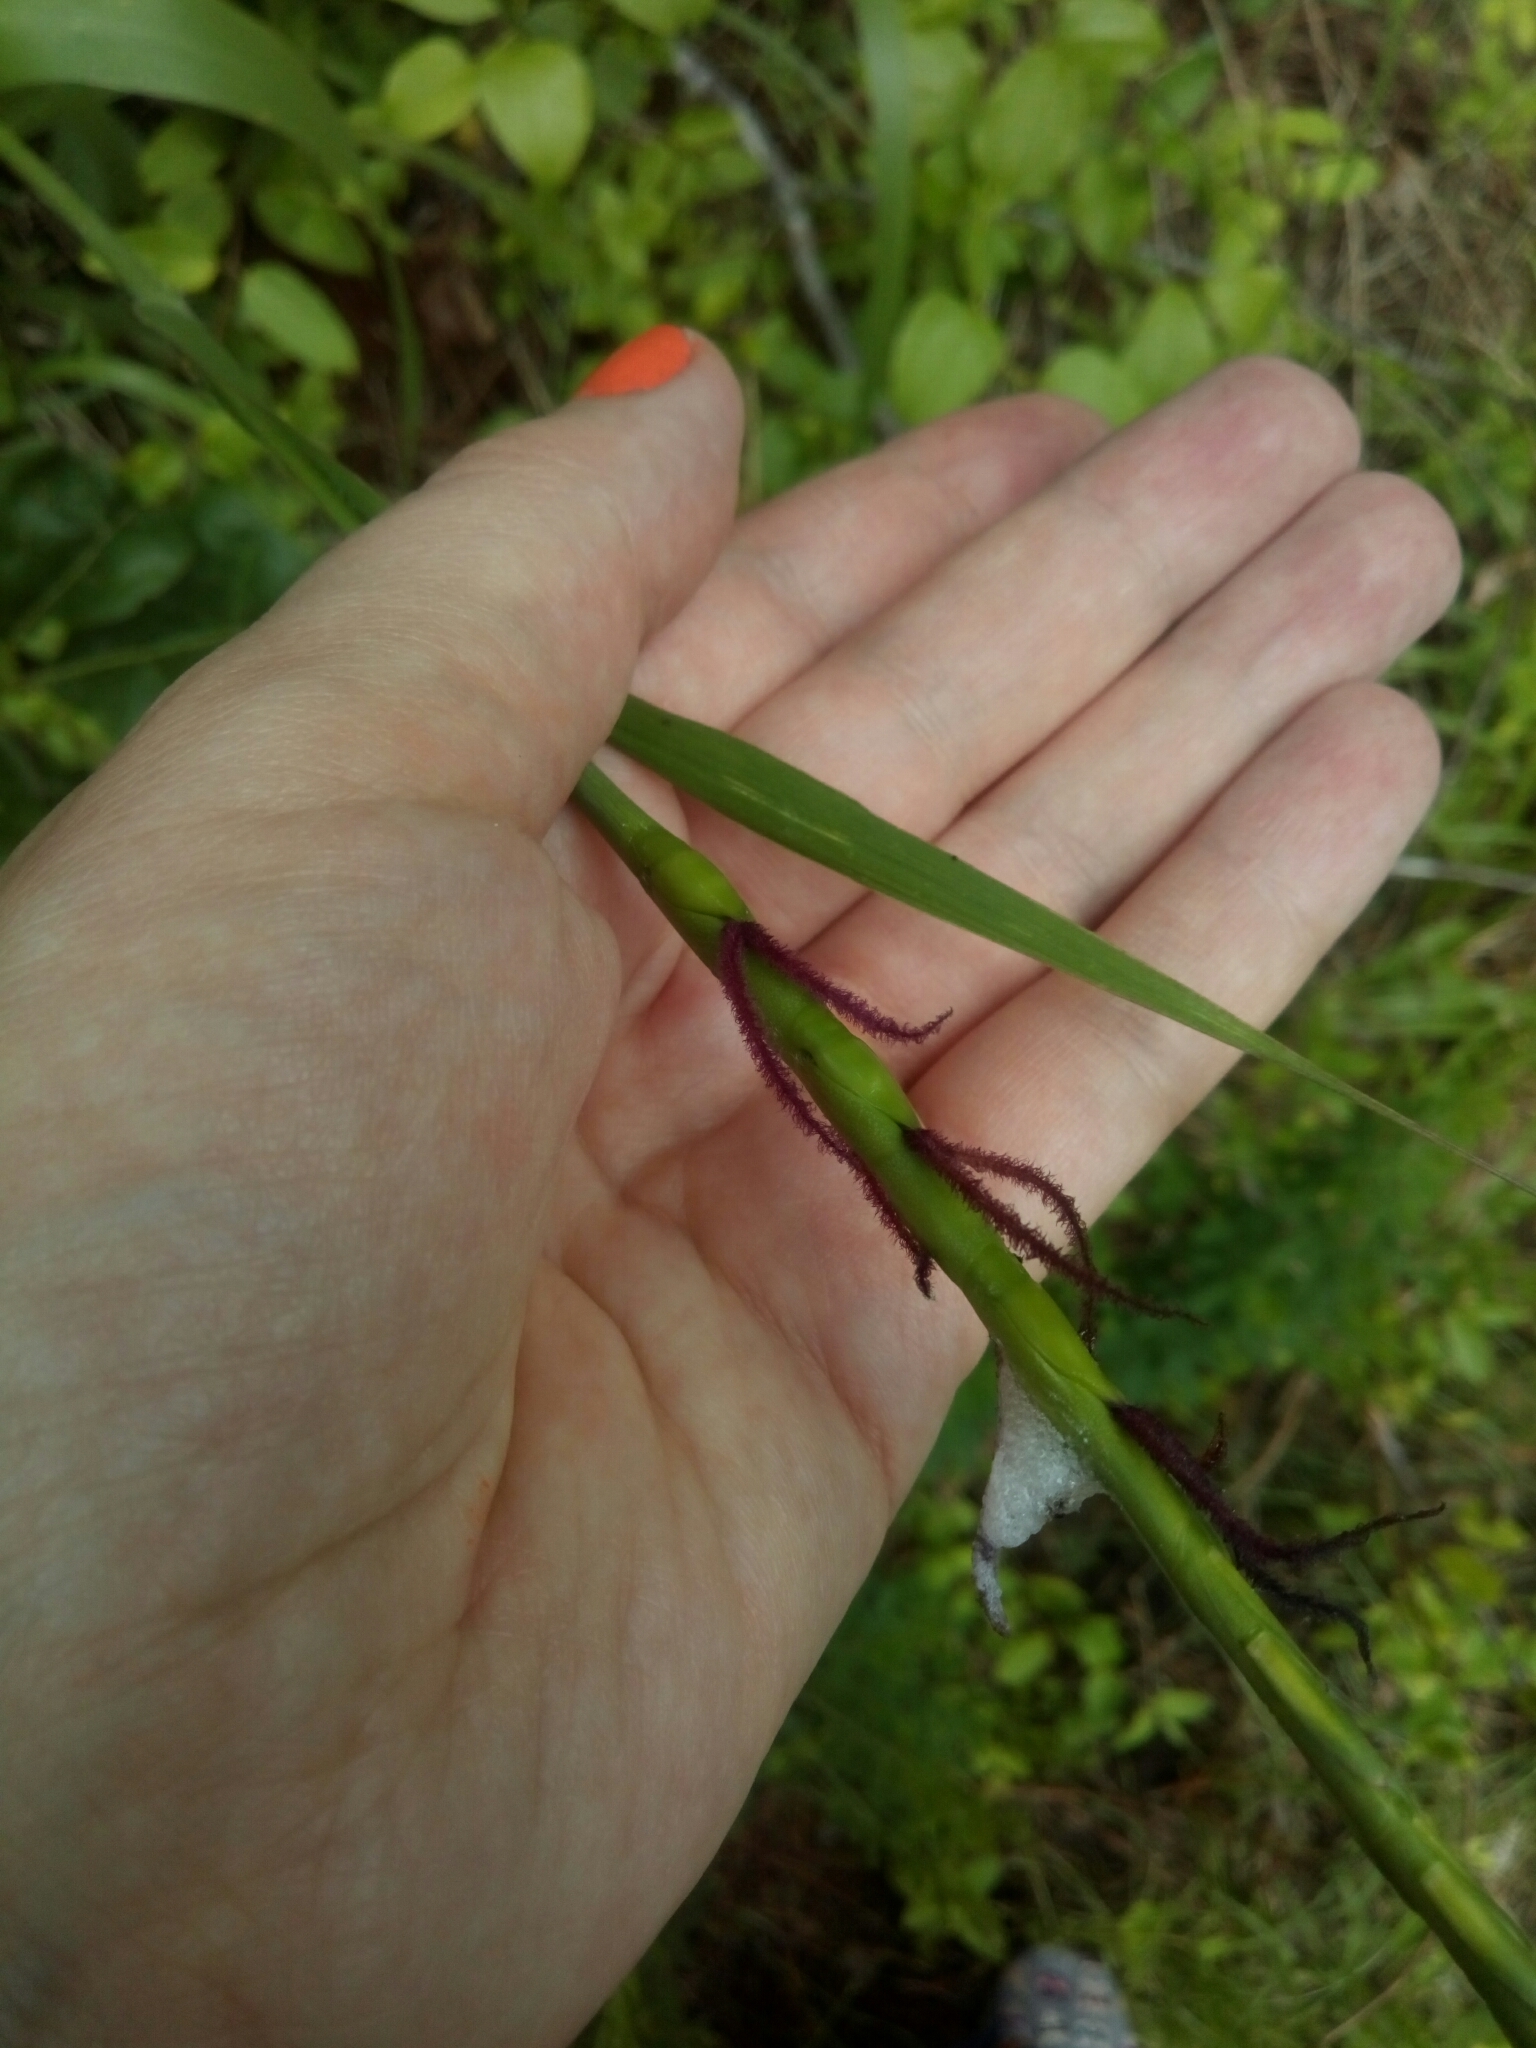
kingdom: Plantae
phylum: Tracheophyta
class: Liliopsida
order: Poales
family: Poaceae
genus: Tripsacum
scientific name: Tripsacum dactyloides
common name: Buffalo-grass
